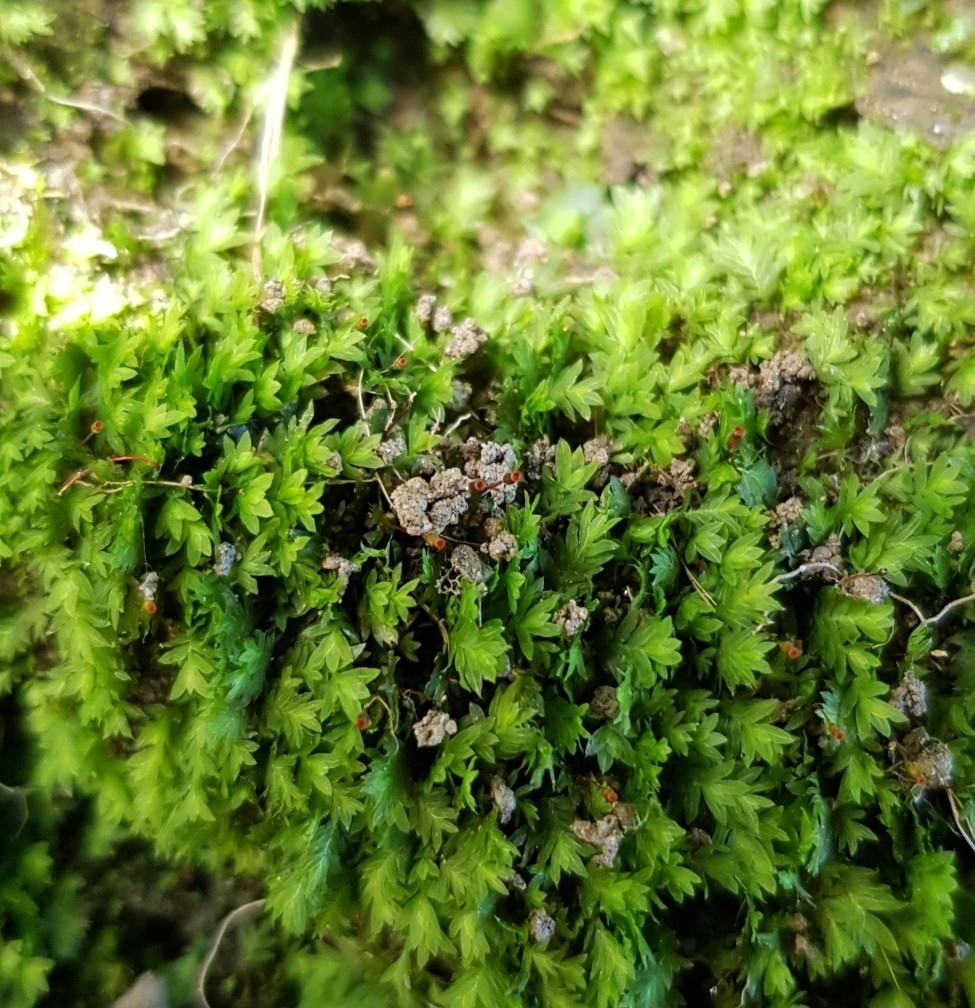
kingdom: Plantae
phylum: Bryophyta
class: Bryopsida
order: Dicranales
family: Fissidentaceae
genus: Fissidens
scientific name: Fissidens bryoides
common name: Lesser pocket moss
